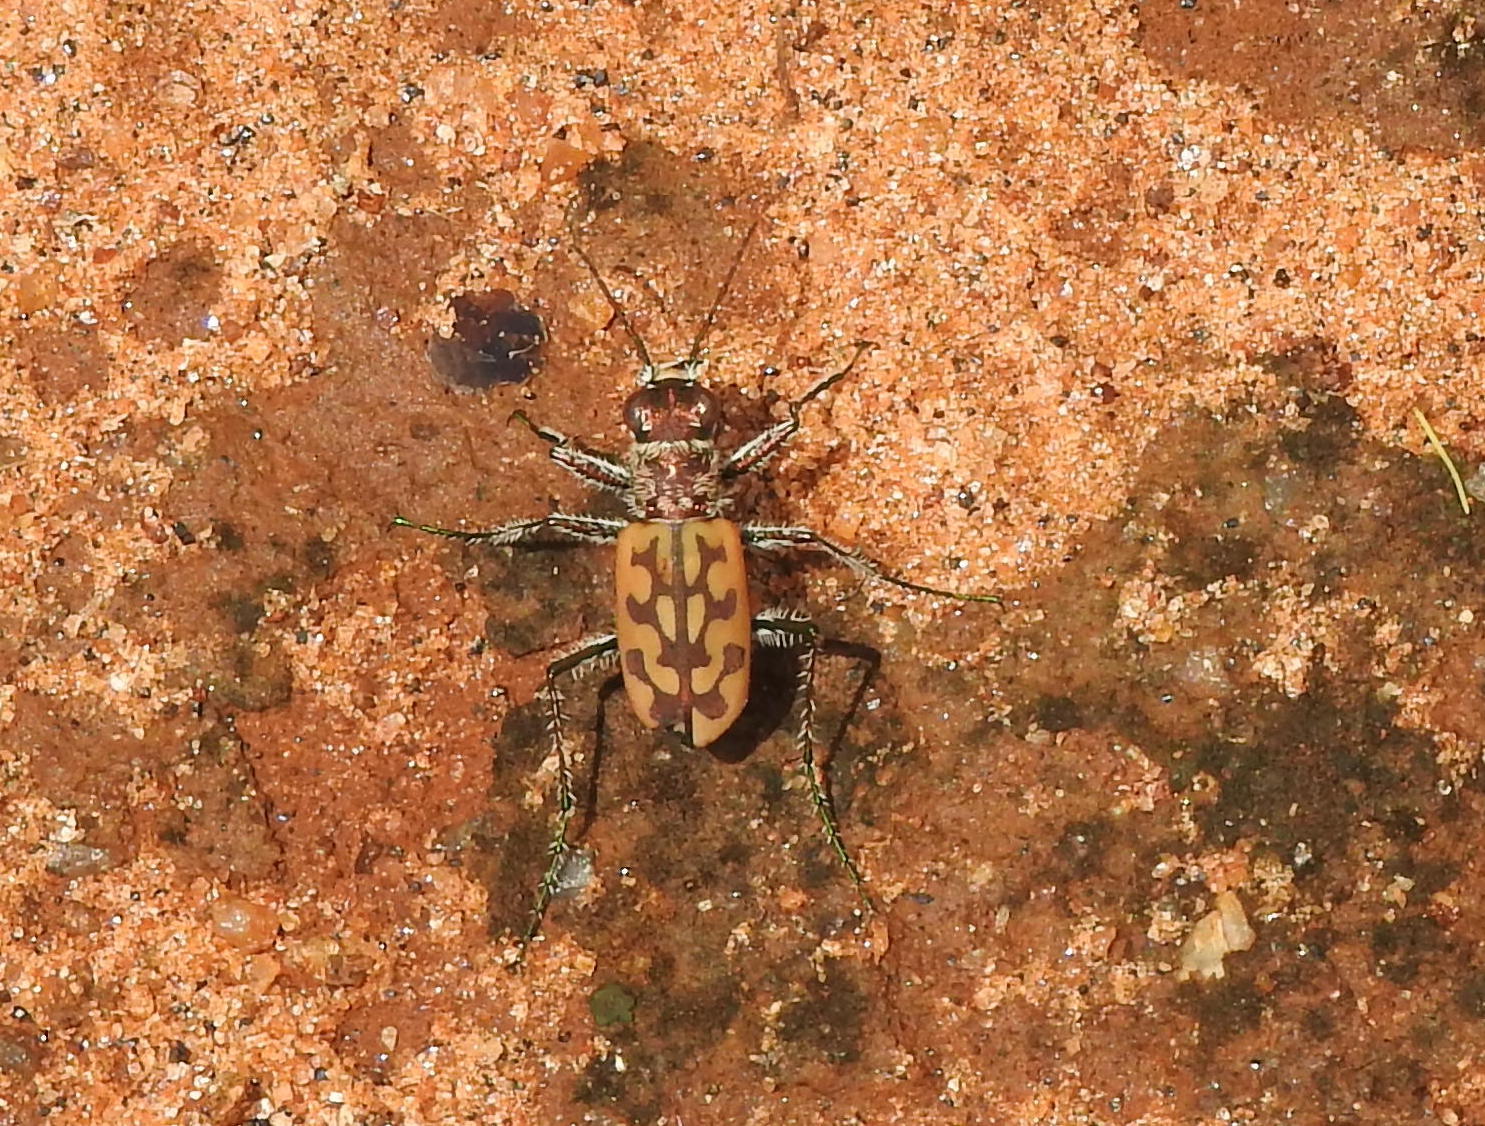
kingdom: Animalia
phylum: Arthropoda
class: Insecta
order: Coleoptera
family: Carabidae
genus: Lophyra
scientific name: Lophyra catena
